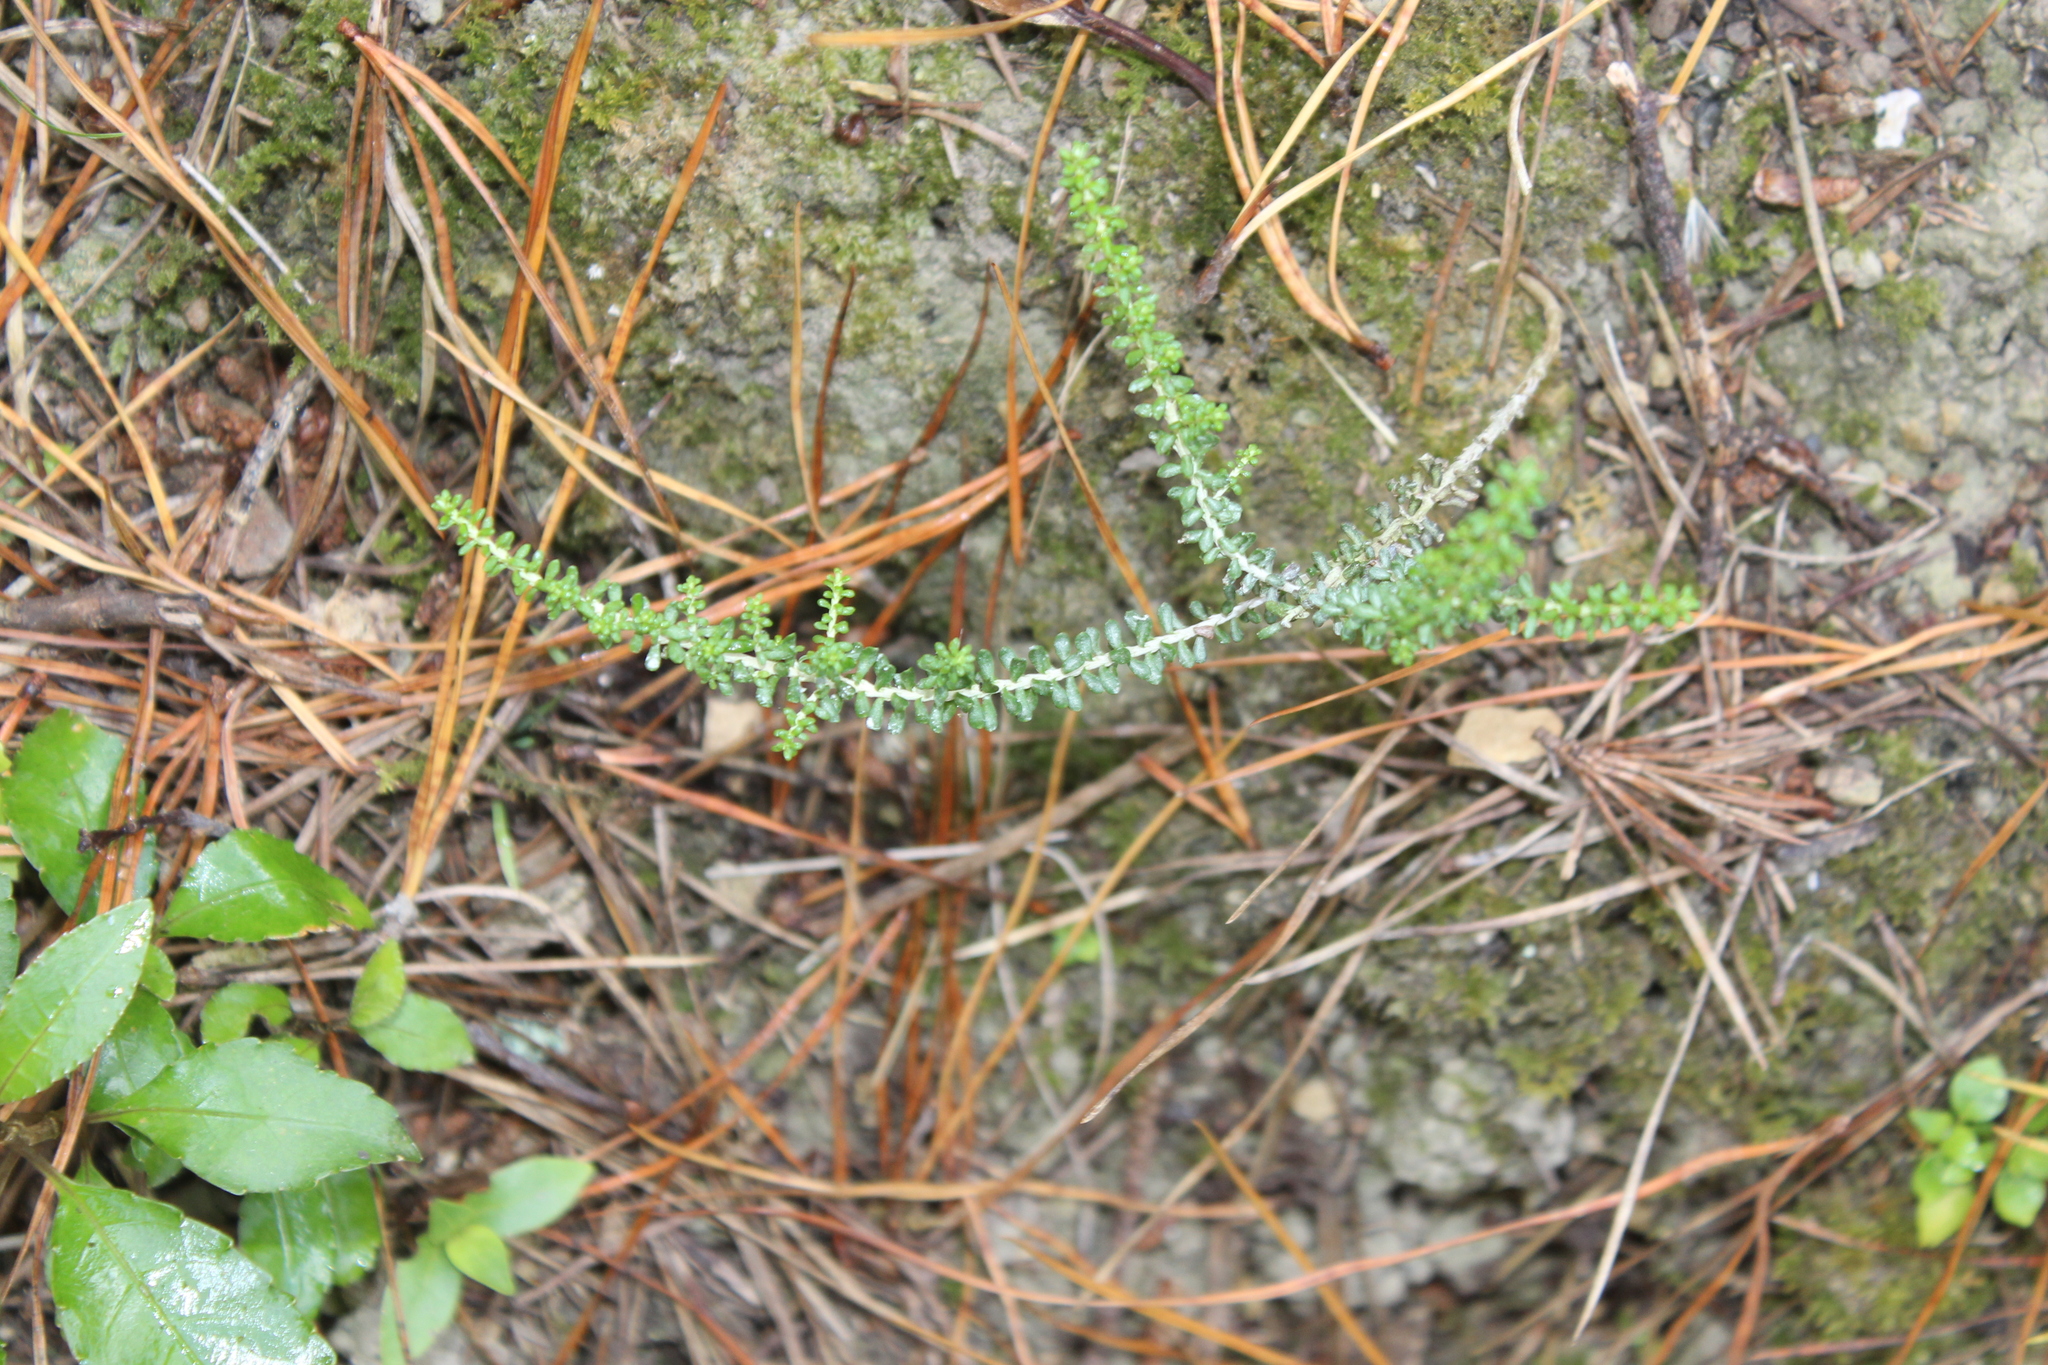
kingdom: Plantae
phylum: Tracheophyta
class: Magnoliopsida
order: Asterales
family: Asteraceae
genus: Ozothamnus
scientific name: Ozothamnus leptophyllus
